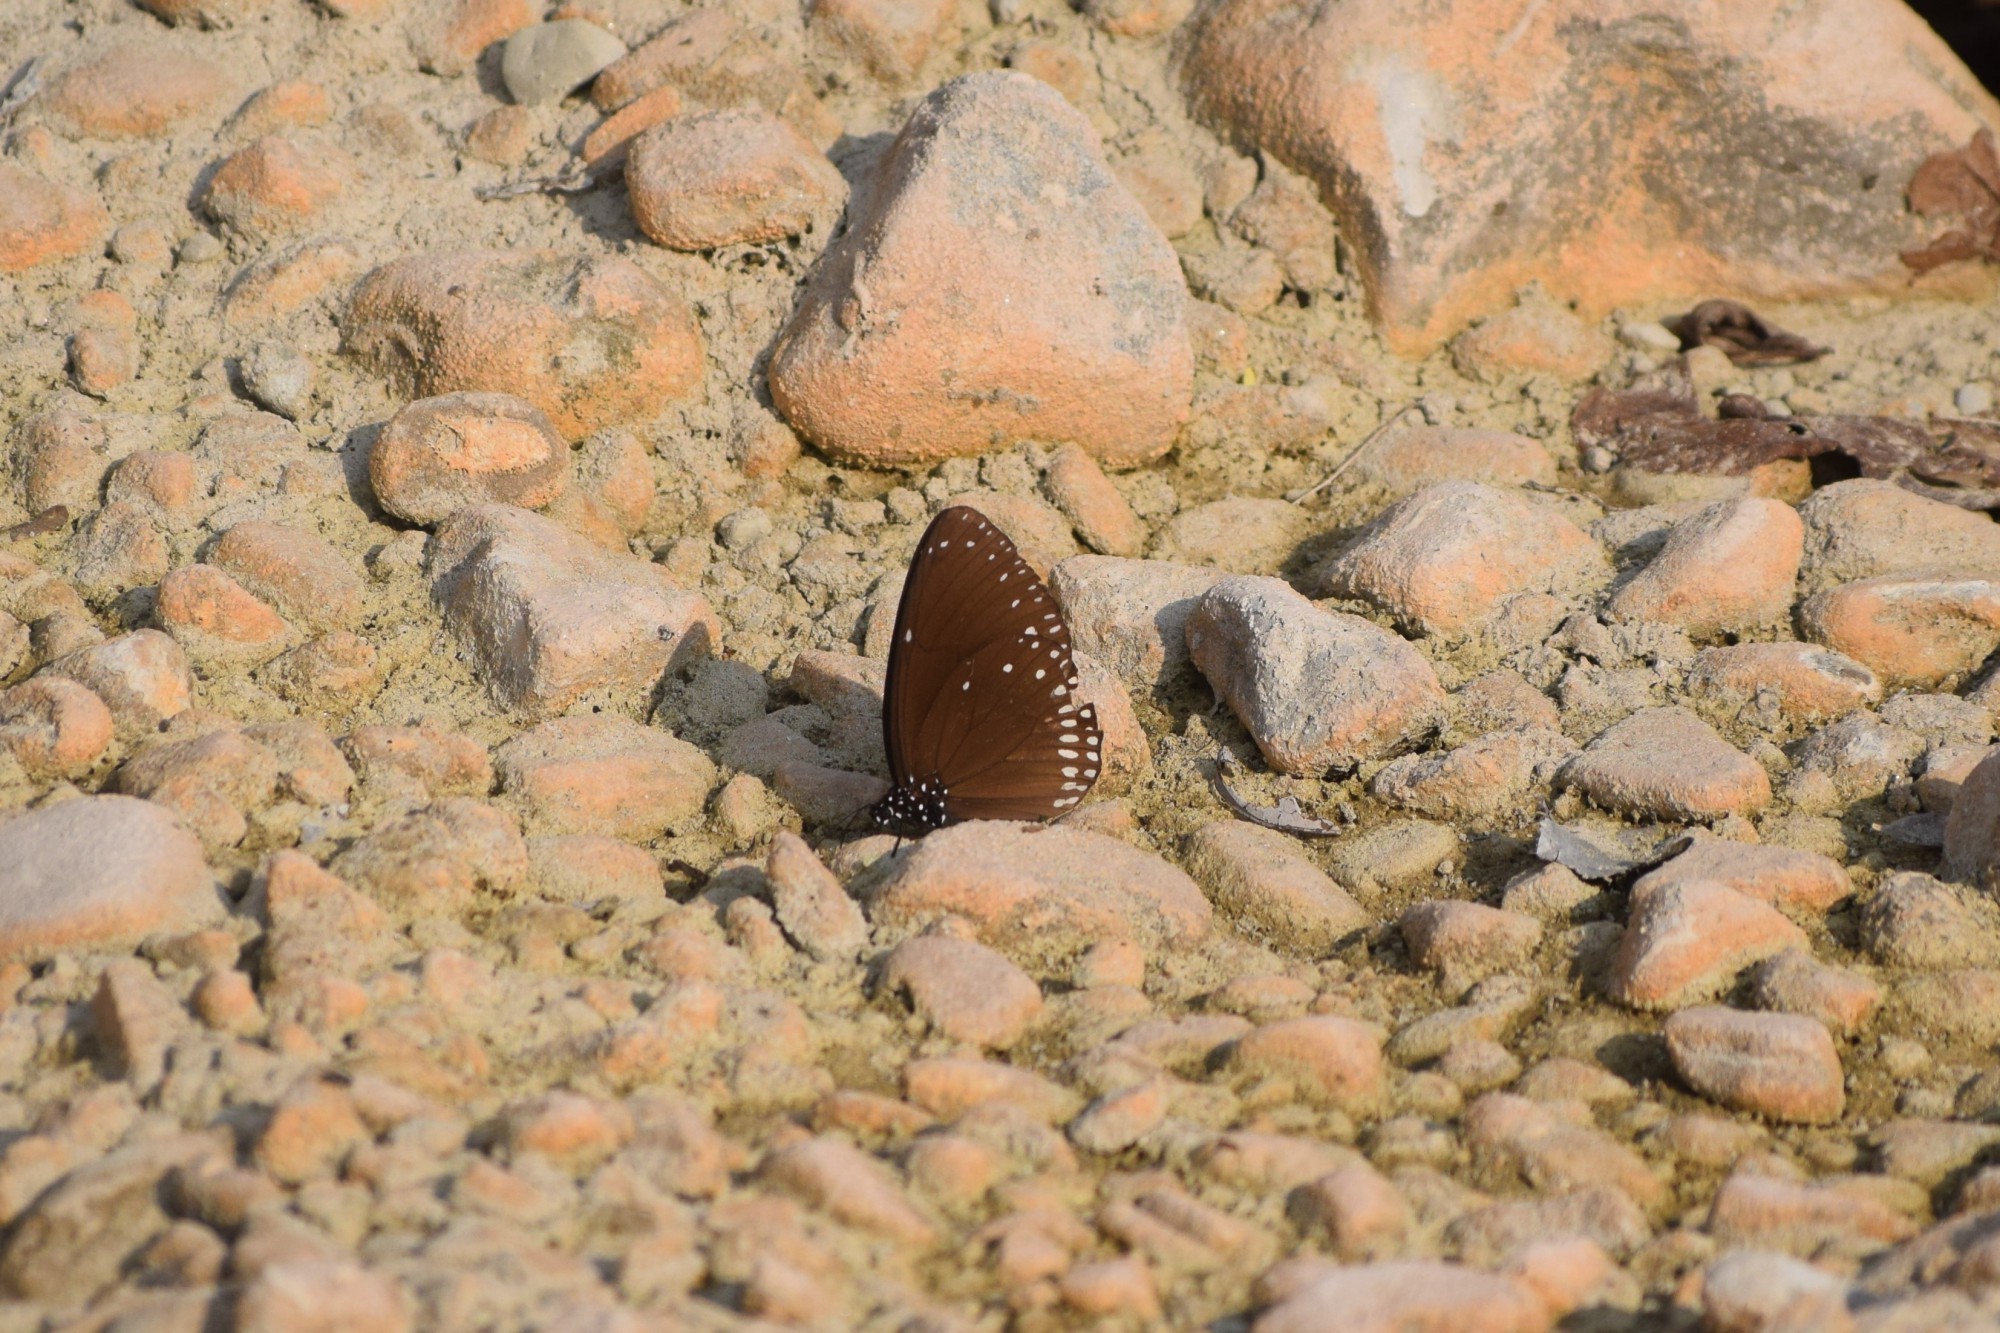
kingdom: Animalia
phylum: Arthropoda
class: Insecta
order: Lepidoptera
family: Nymphalidae
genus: Euploea
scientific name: Euploea klugii
